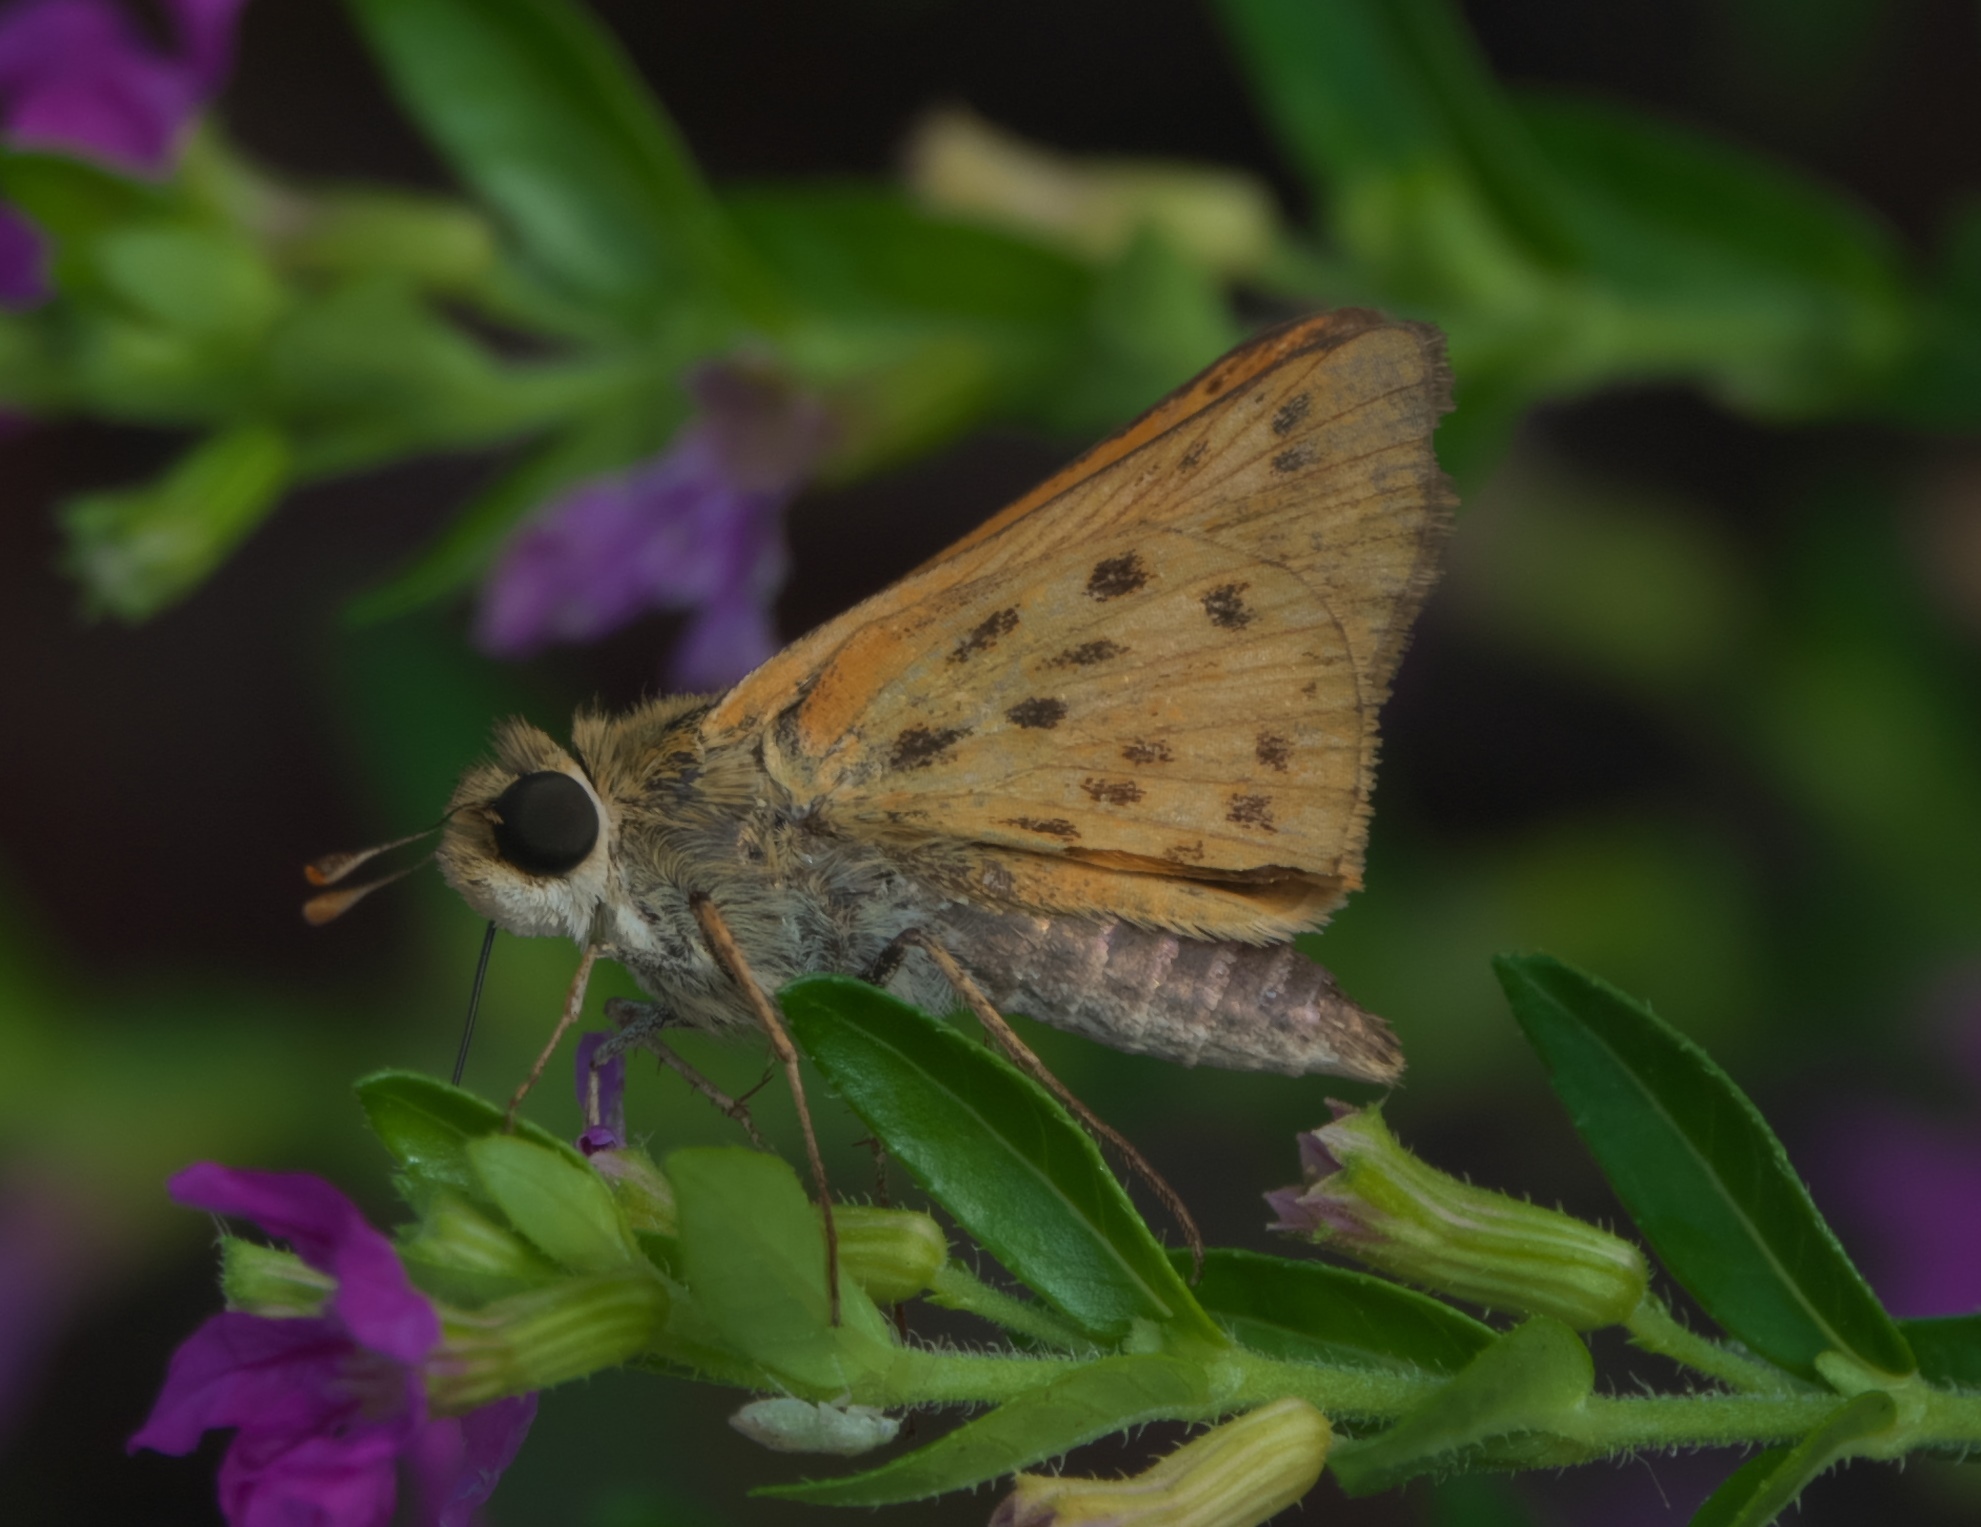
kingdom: Animalia
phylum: Arthropoda
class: Insecta
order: Lepidoptera
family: Hesperiidae
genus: Hylephila
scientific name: Hylephila phyleus
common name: Fiery skipper
